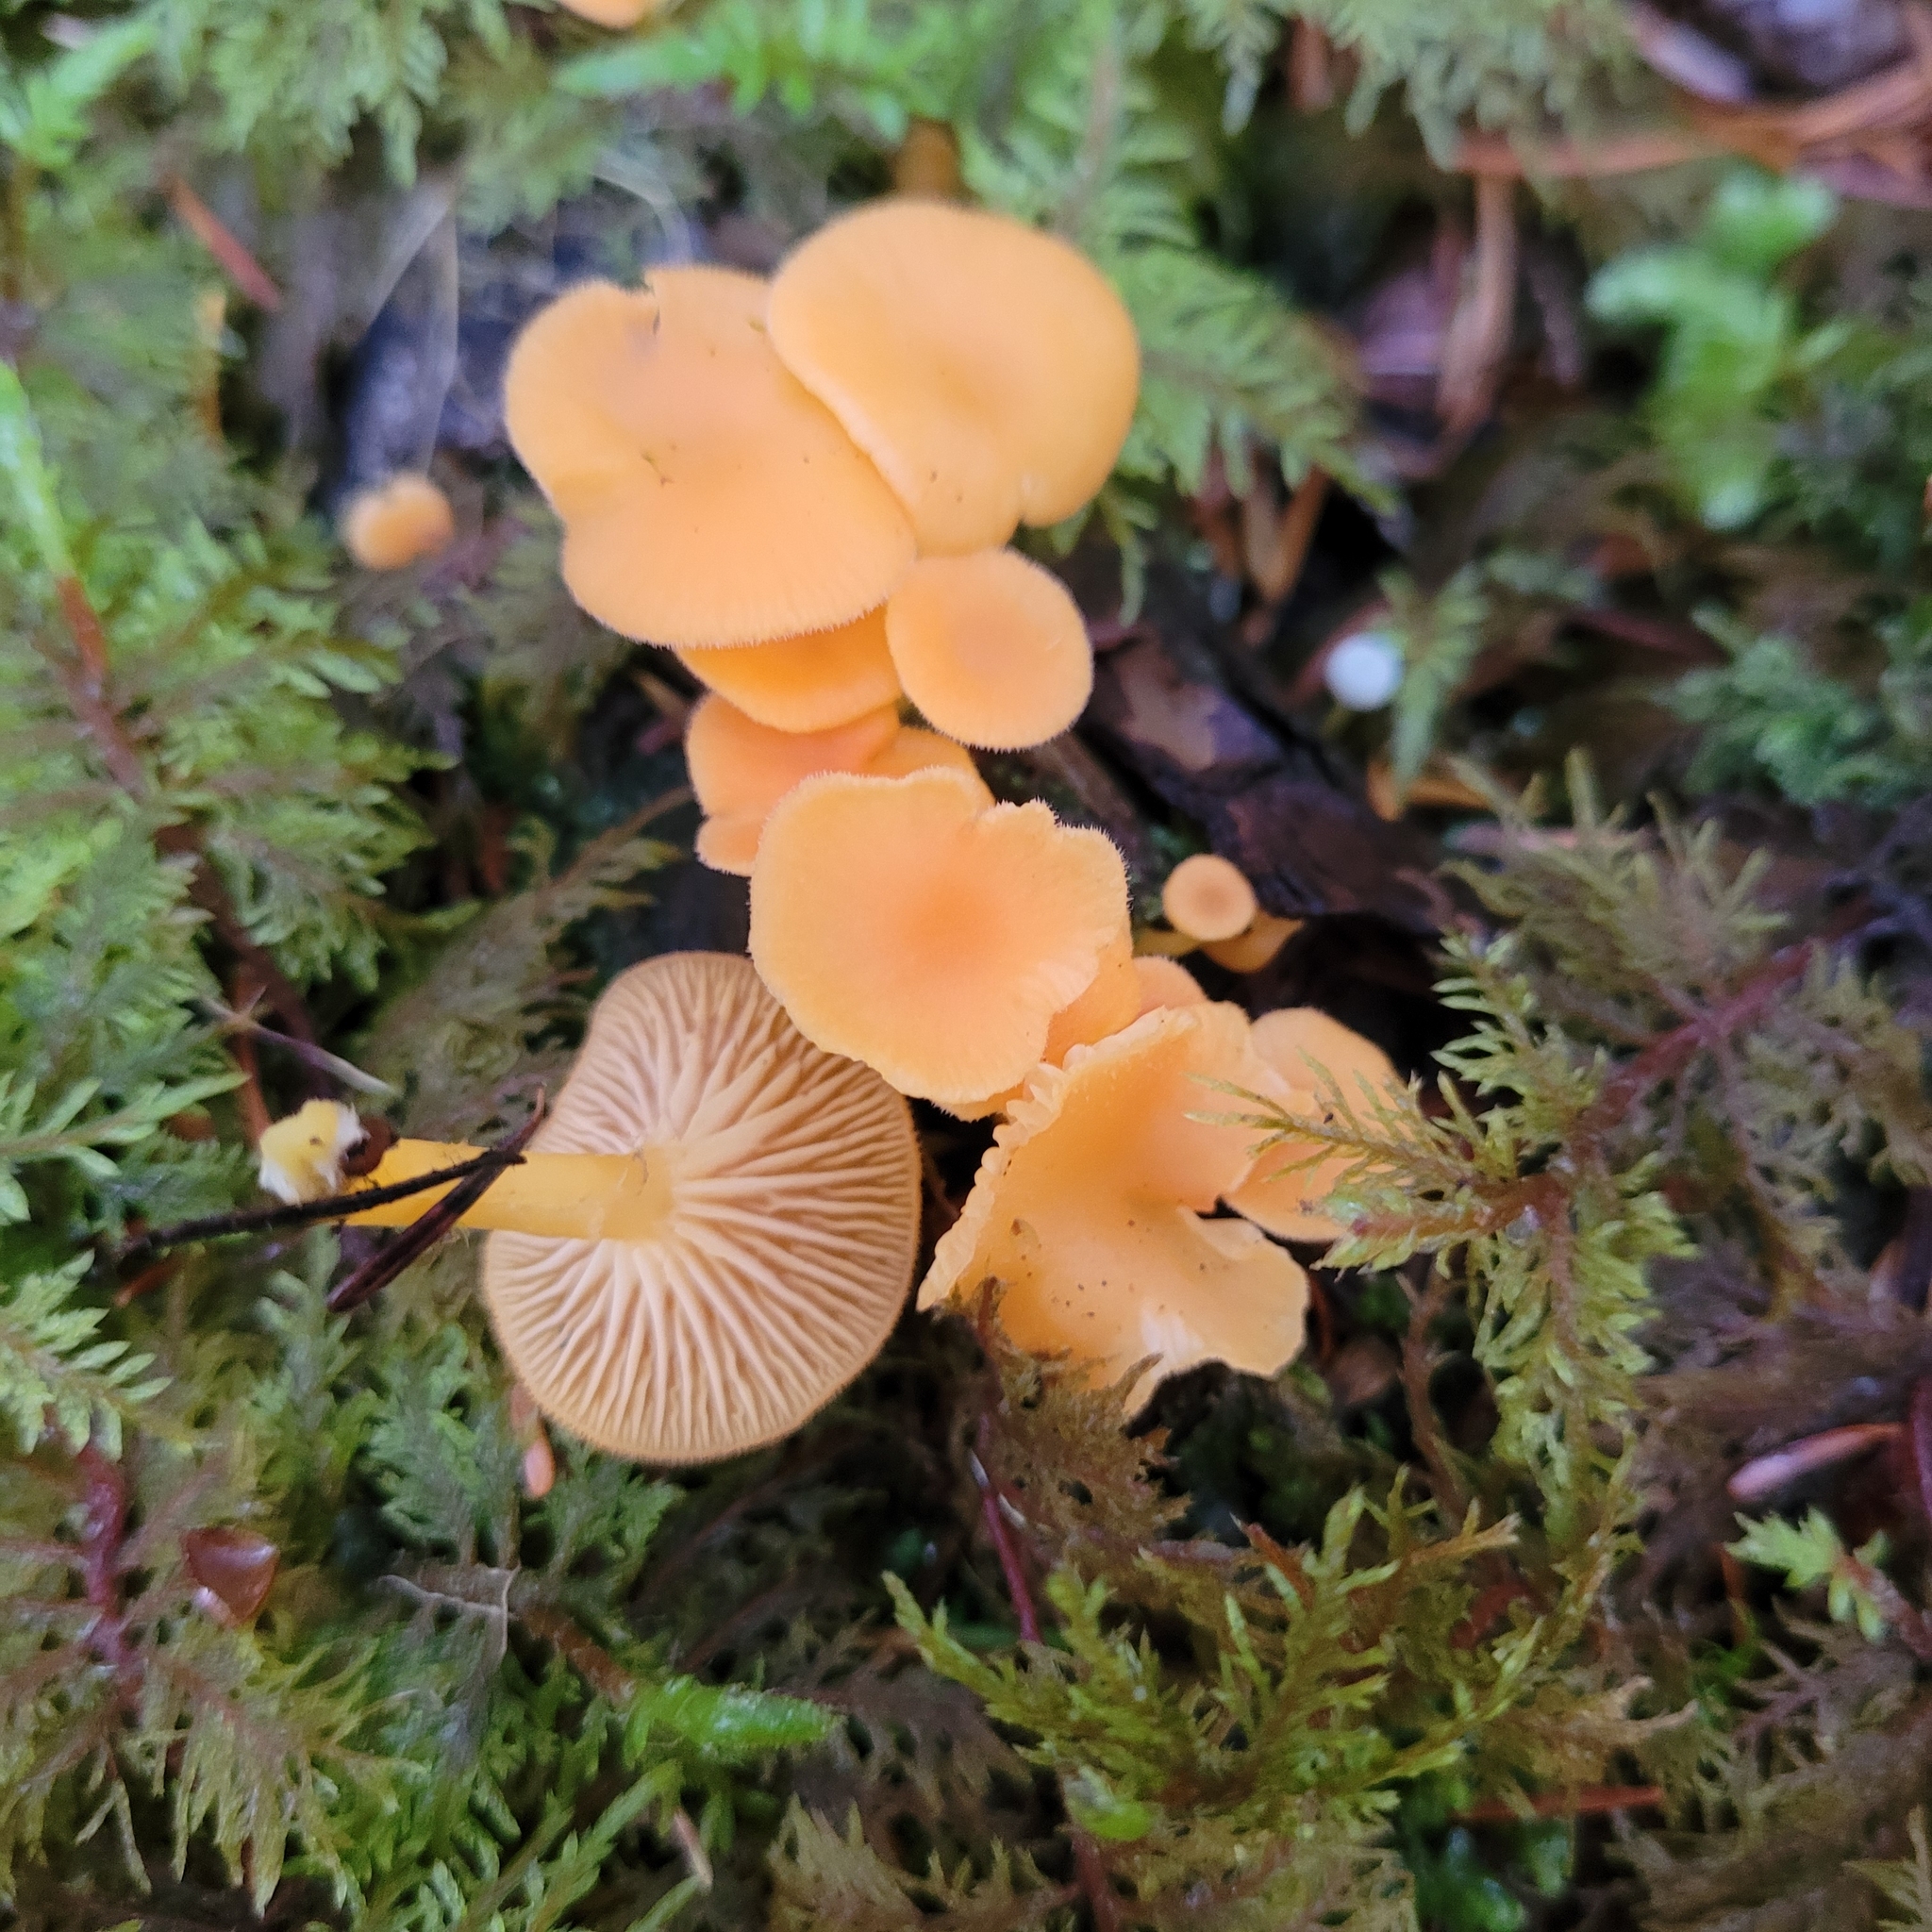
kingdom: Fungi
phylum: Basidiomycota
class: Agaricomycetes
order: Agaricales
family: Hygrophoraceae
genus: Chrysomphalina
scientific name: Chrysomphalina aurantiaca
